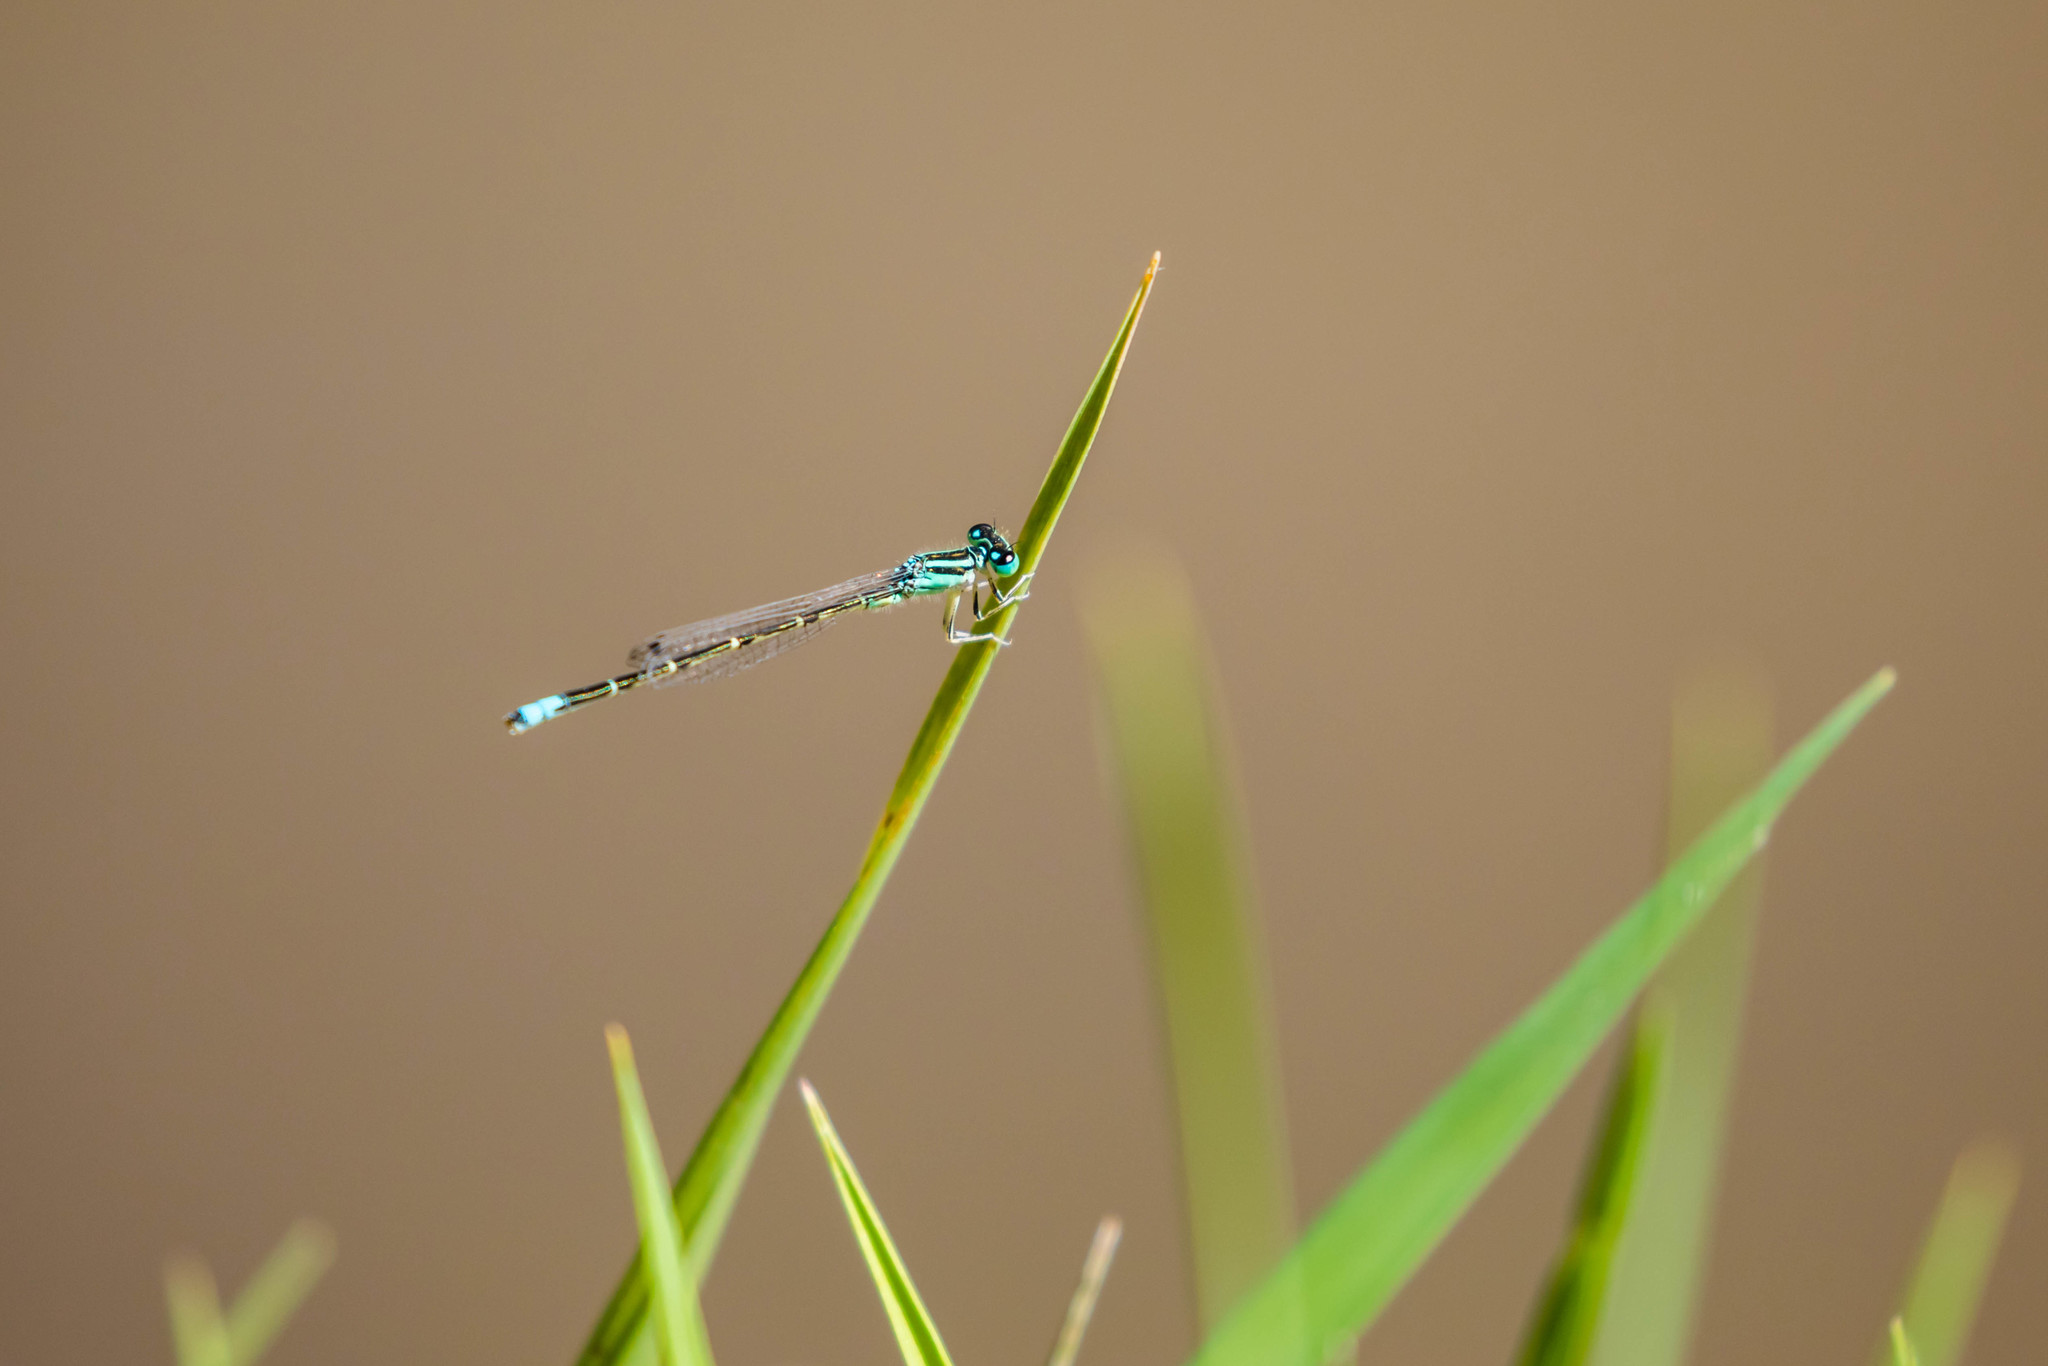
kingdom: Animalia
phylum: Arthropoda
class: Insecta
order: Odonata
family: Coenagrionidae
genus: Ischnura
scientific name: Ischnura demorsa
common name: Mexican forktail
